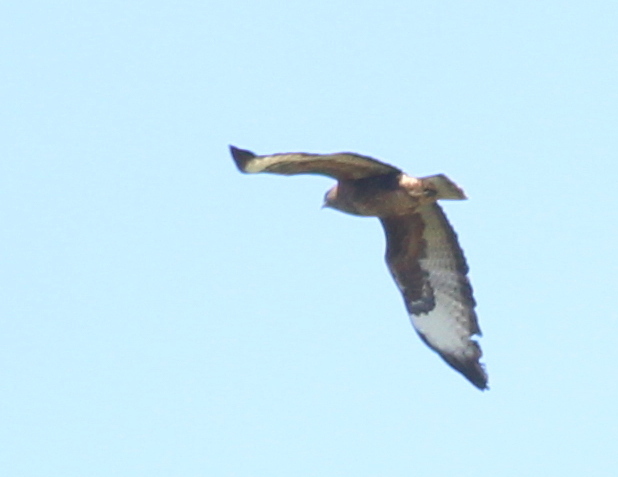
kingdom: Animalia
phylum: Chordata
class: Aves
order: Accipitriformes
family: Accipitridae
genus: Buteo
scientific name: Buteo buteo
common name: Common buzzard
